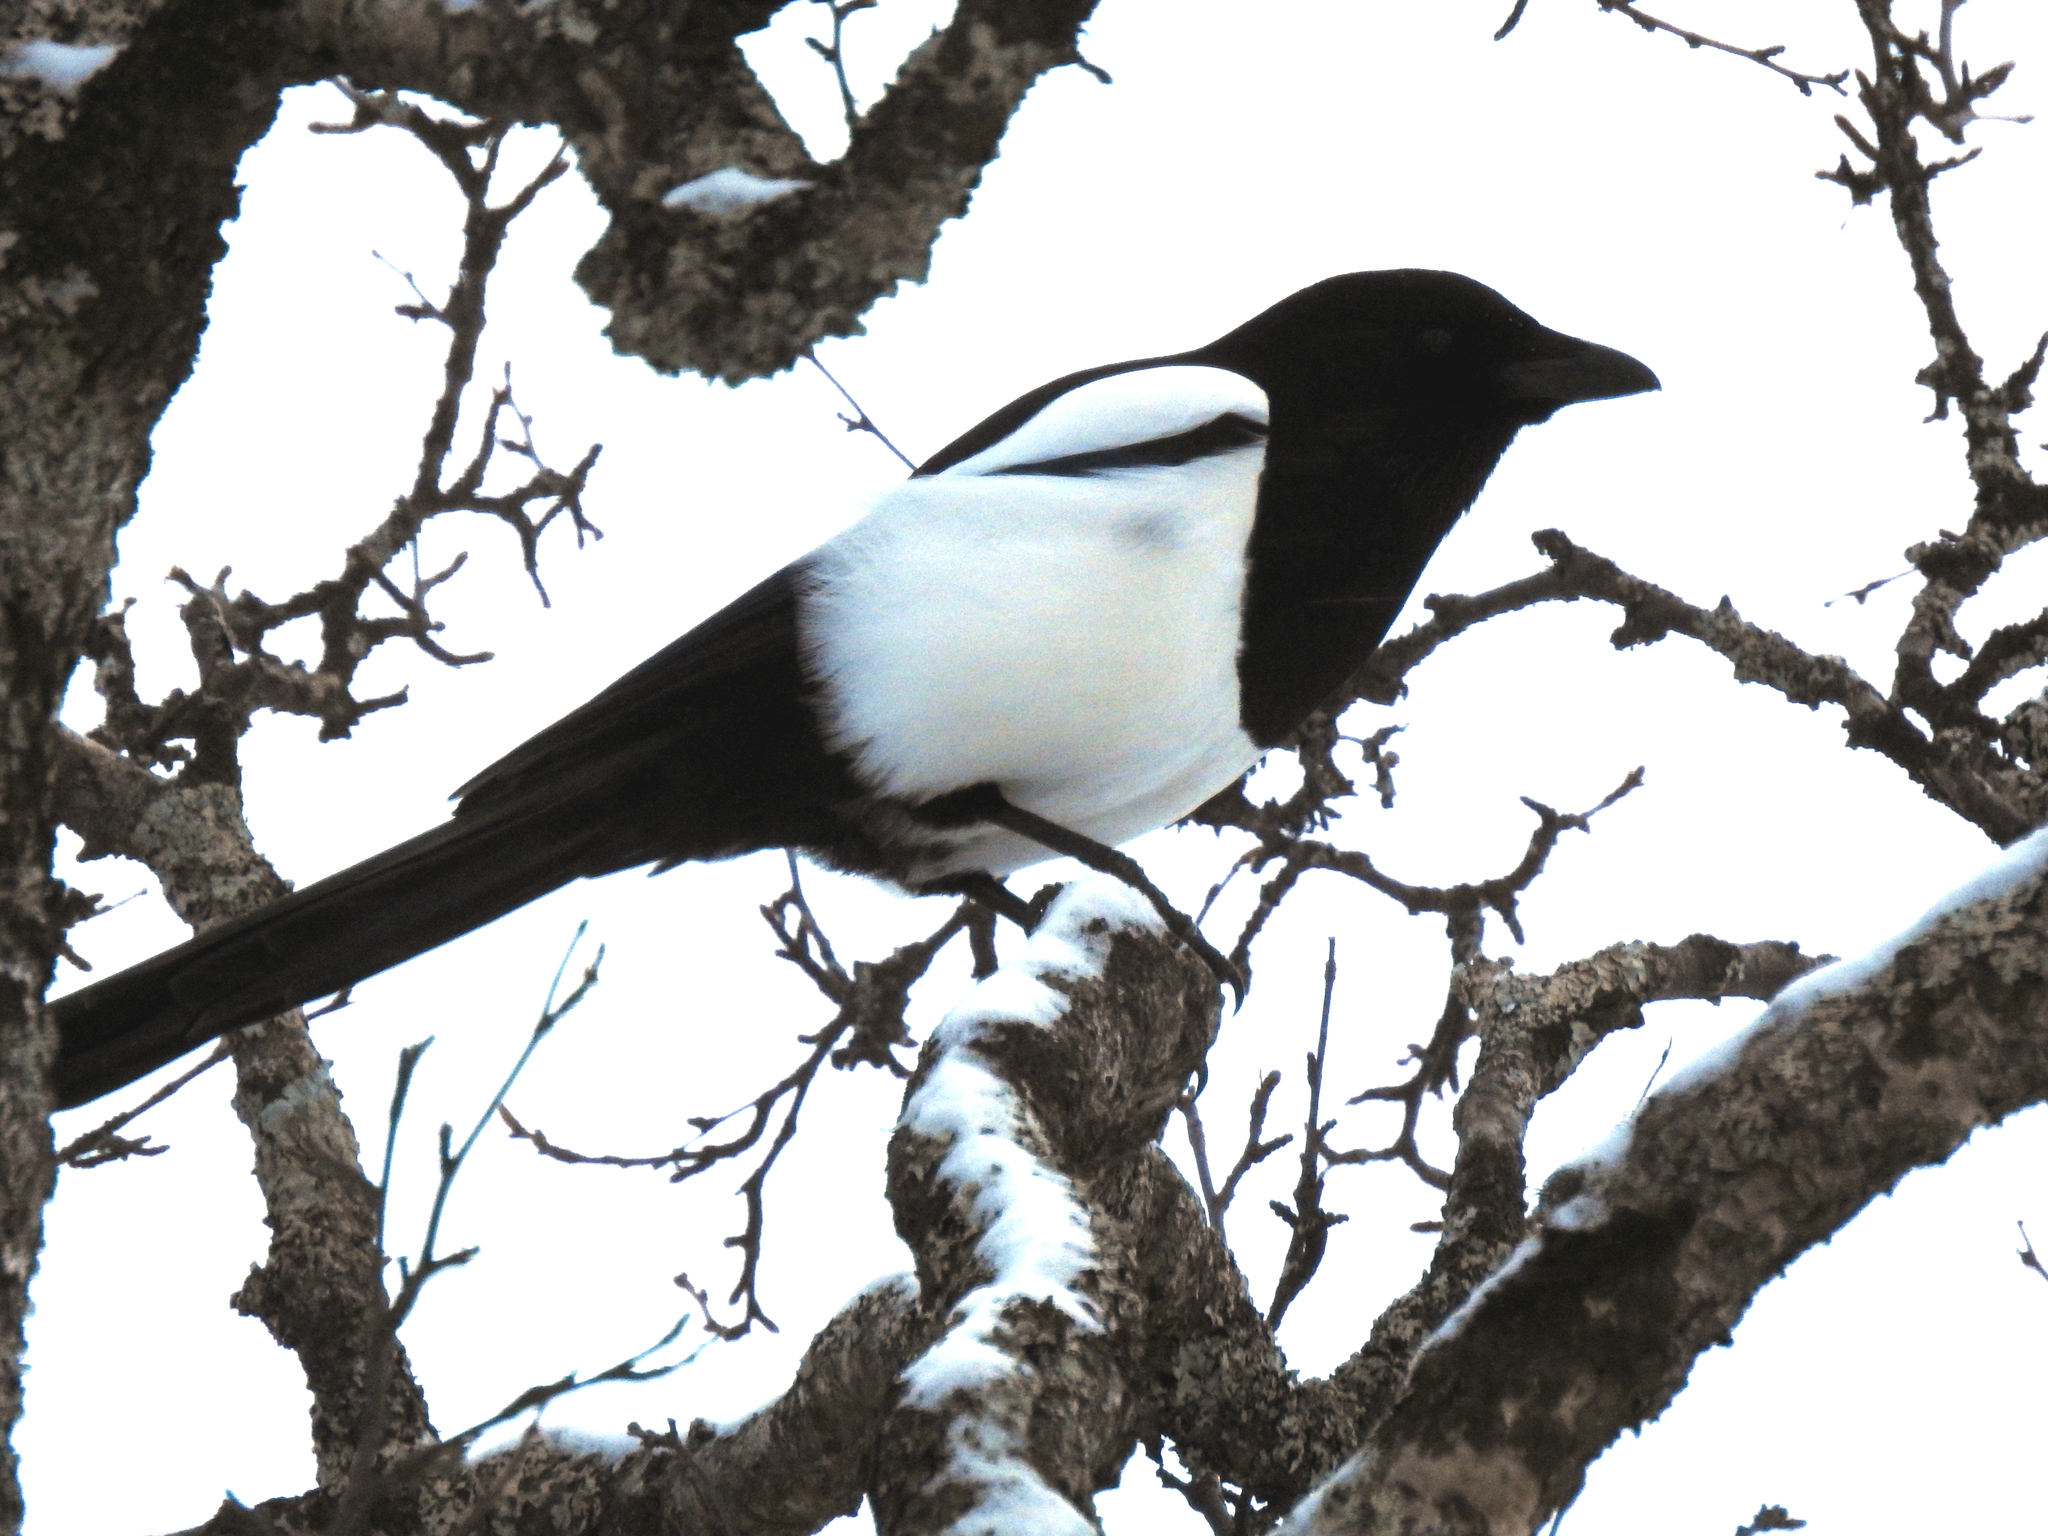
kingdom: Animalia
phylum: Chordata
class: Aves
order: Passeriformes
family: Corvidae
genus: Pica
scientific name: Pica pica
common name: Eurasian magpie
